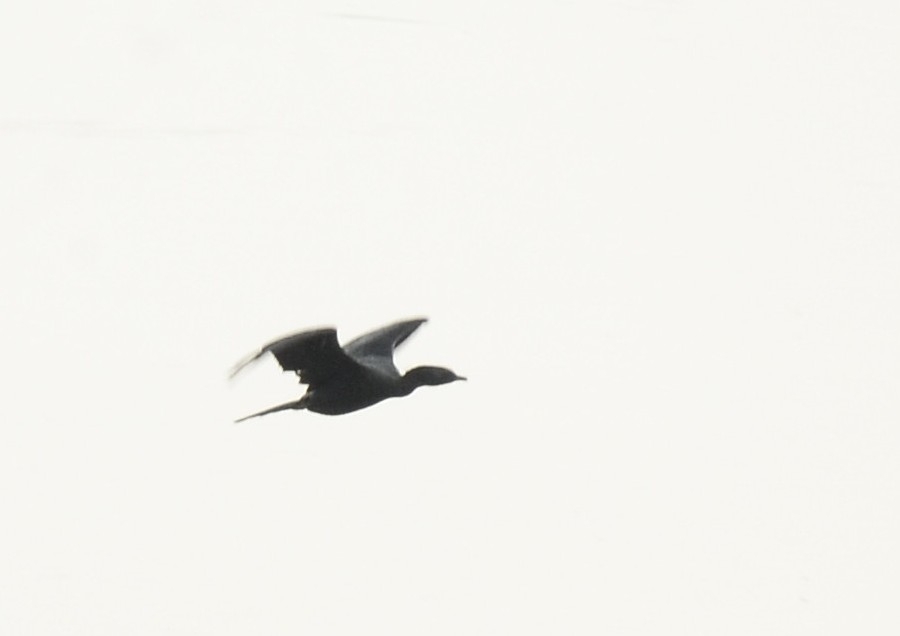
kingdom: Animalia
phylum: Chordata
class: Aves
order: Suliformes
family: Phalacrocoracidae
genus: Microcarbo
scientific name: Microcarbo niger
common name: Little cormorant
